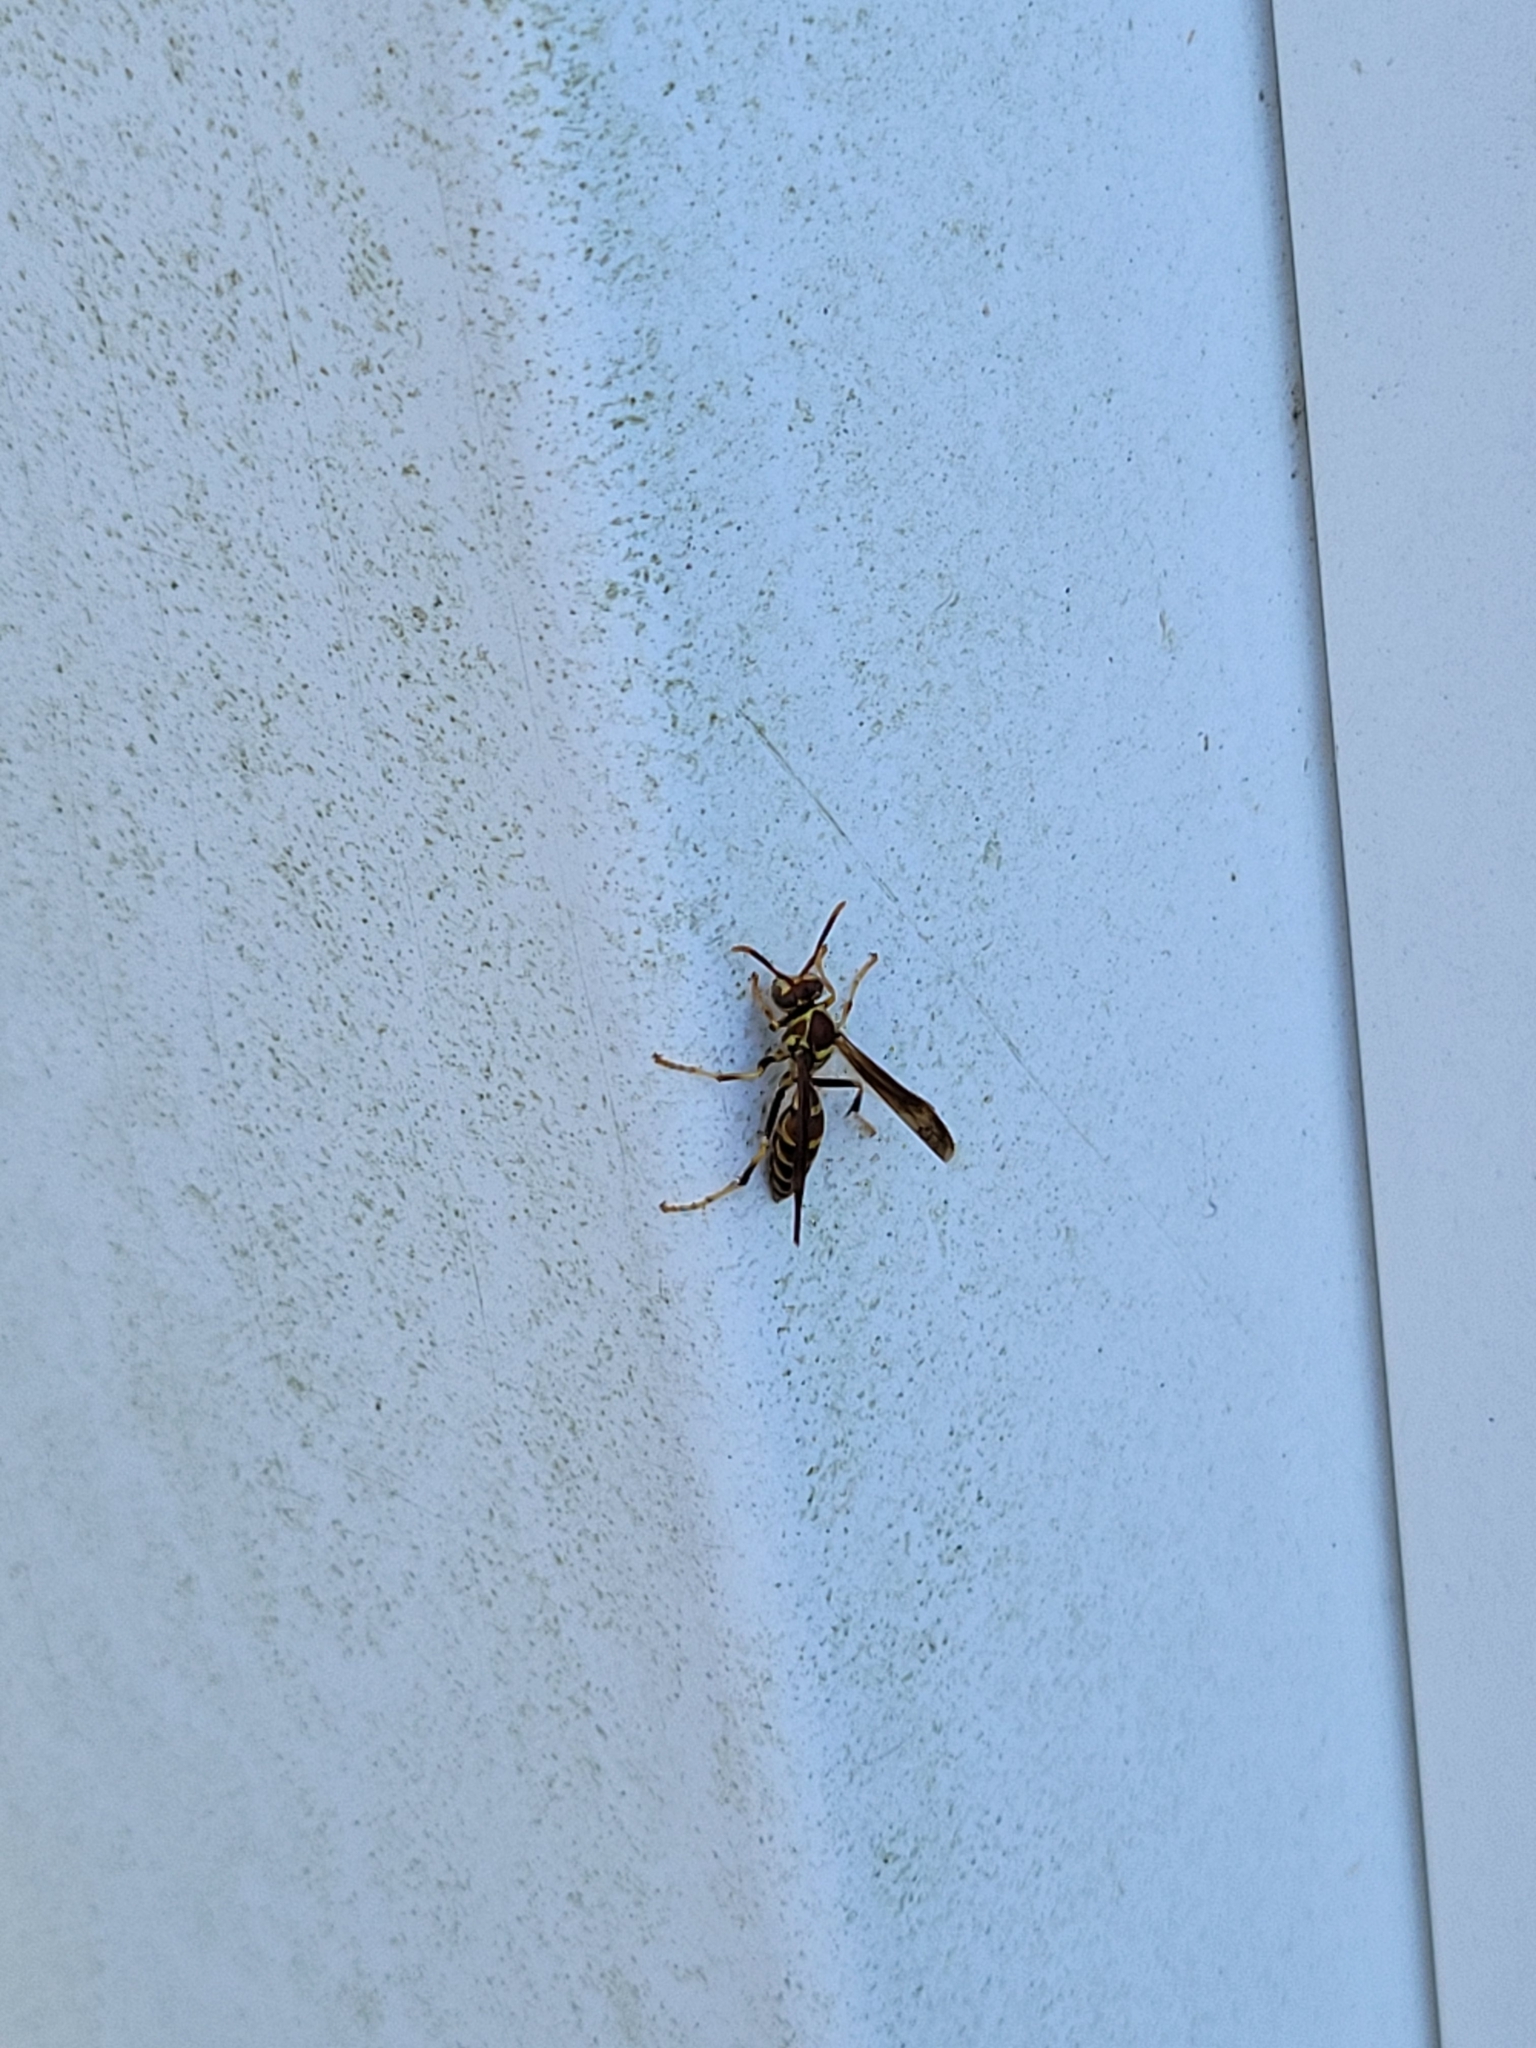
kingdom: Animalia
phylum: Arthropoda
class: Insecta
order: Hymenoptera
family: Eumenidae
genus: Polistes
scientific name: Polistes exclamans
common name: Paper wasp
